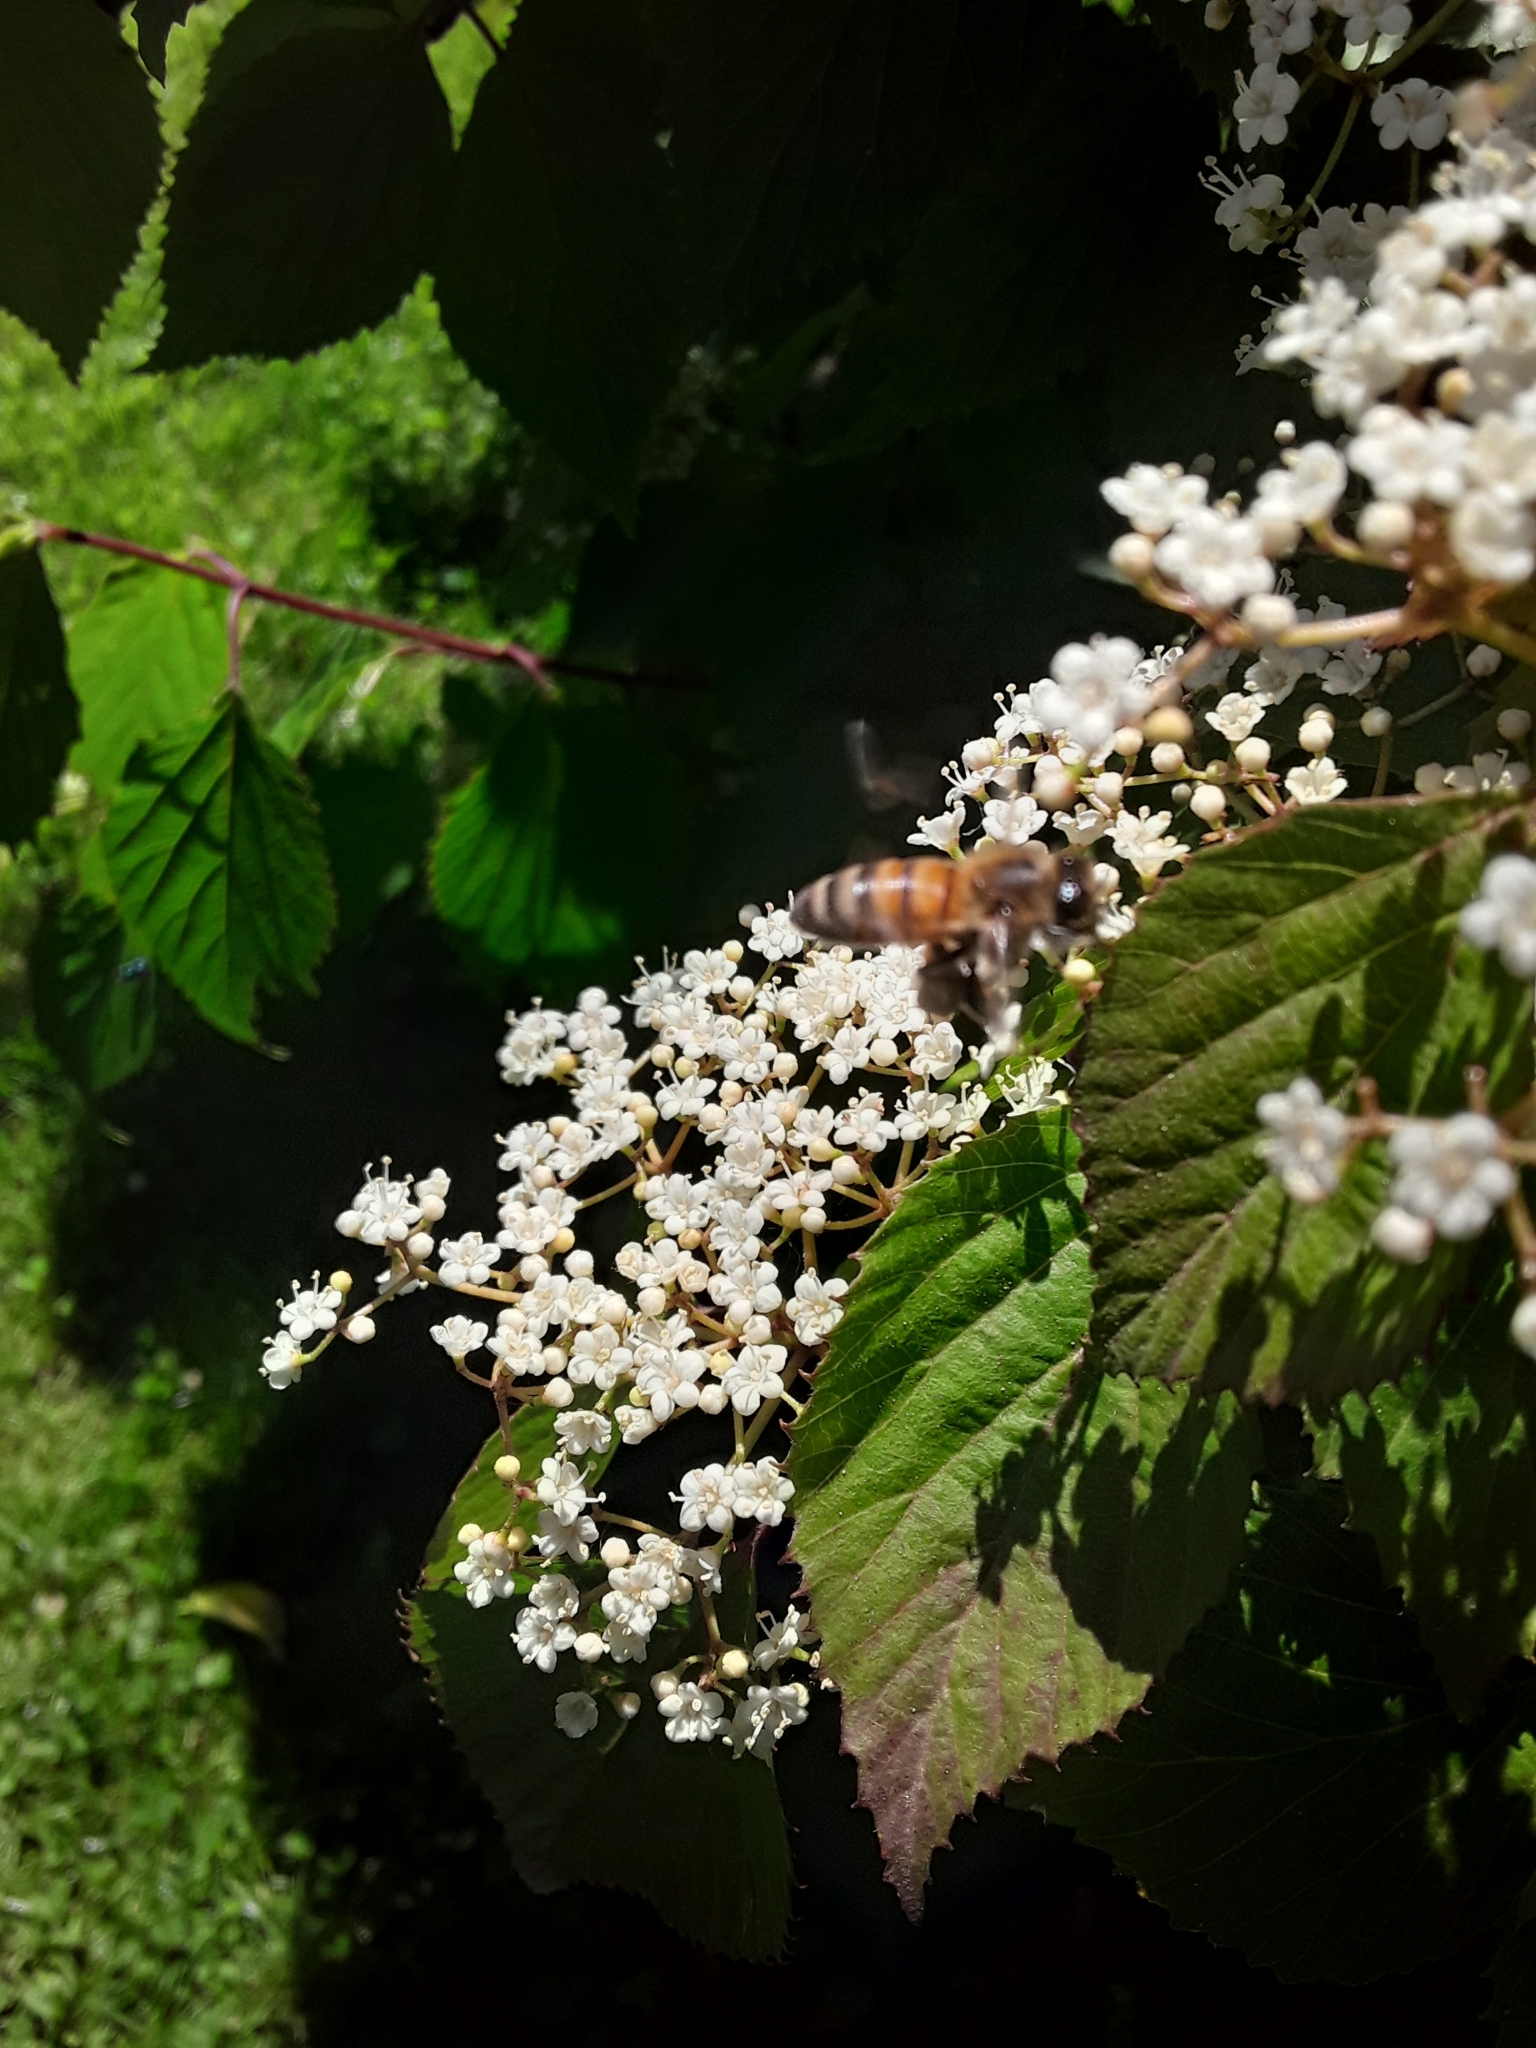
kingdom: Animalia
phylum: Arthropoda
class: Insecta
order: Hymenoptera
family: Apidae
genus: Apis
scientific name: Apis mellifera
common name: Honey bee
